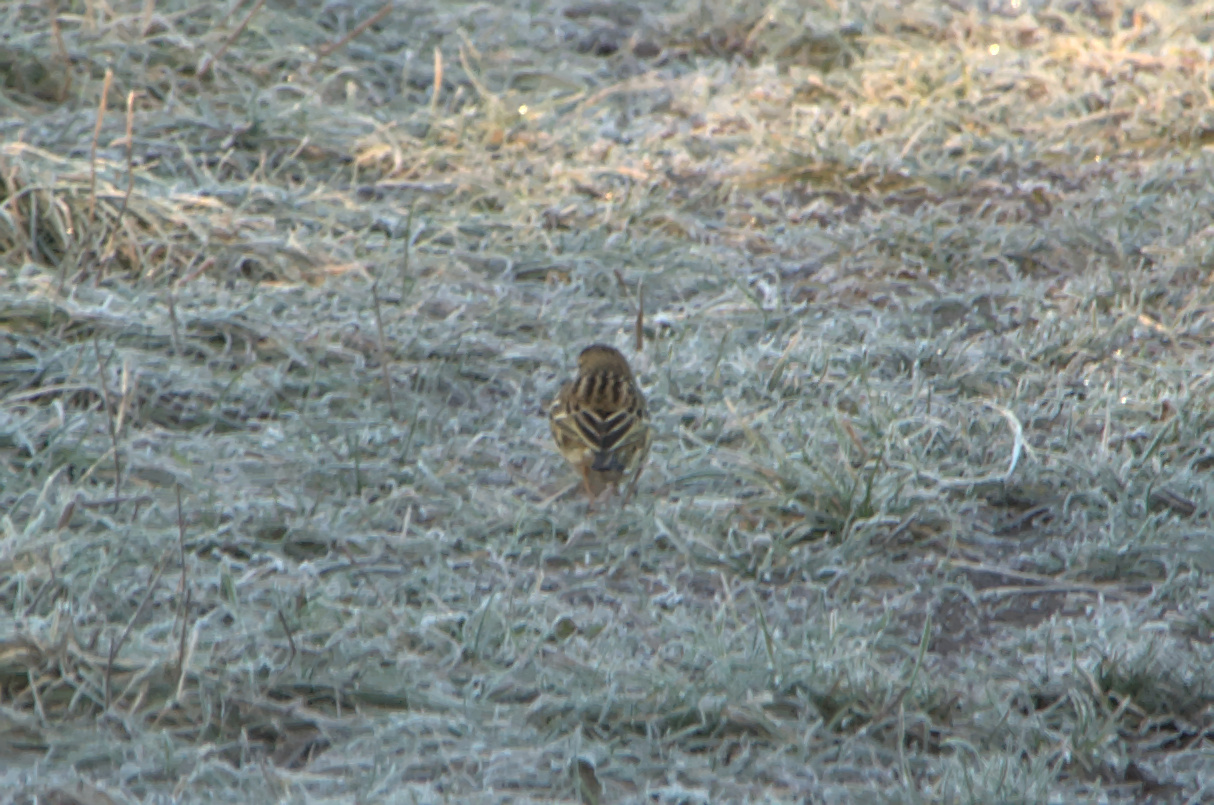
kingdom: Animalia
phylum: Chordata
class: Aves
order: Passeriformes
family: Motacillidae
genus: Anthus
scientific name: Anthus pratensis
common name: Meadow pipit
